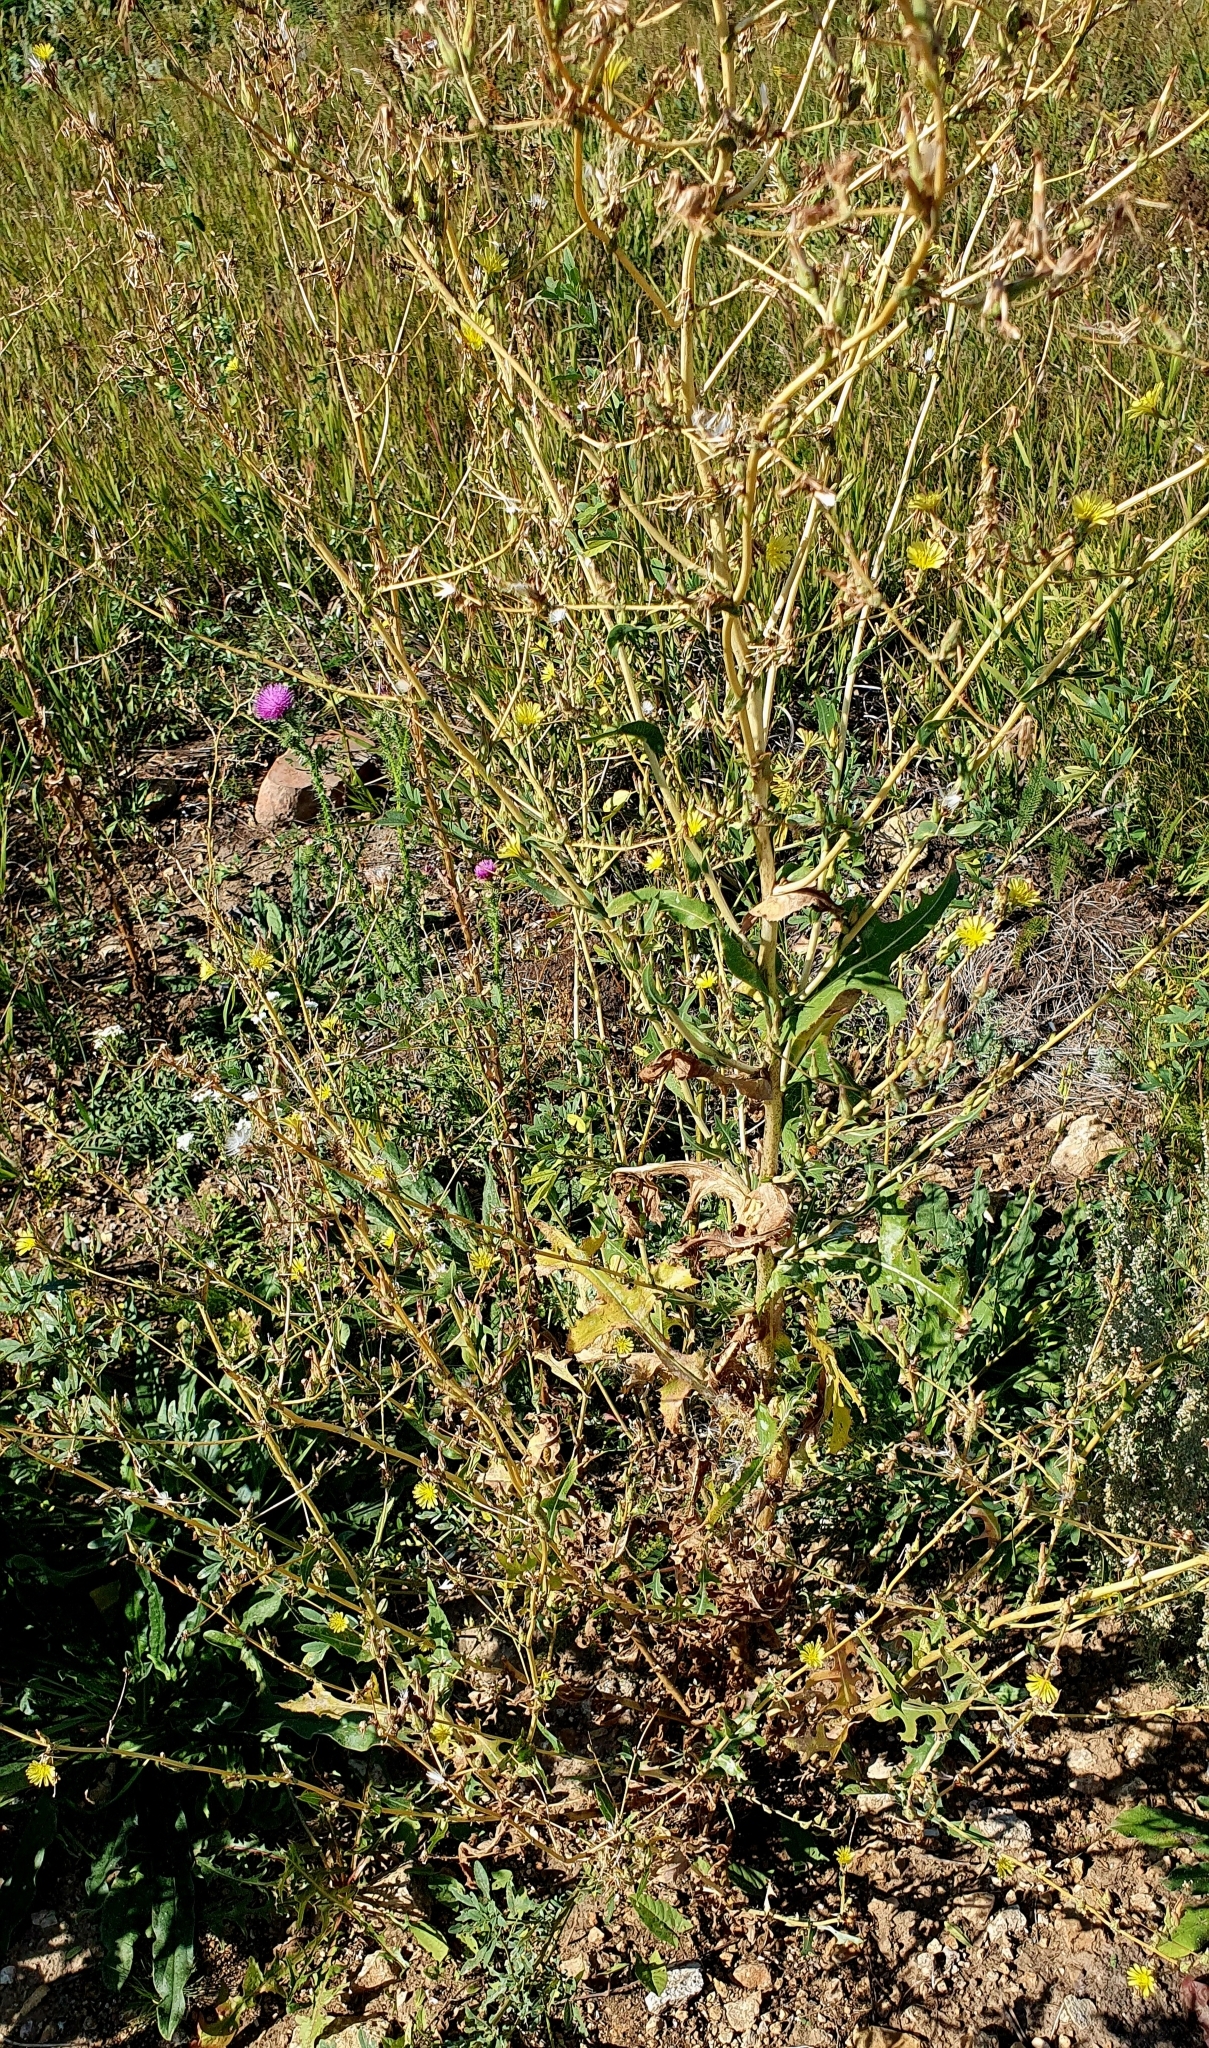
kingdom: Plantae
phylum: Tracheophyta
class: Magnoliopsida
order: Asterales
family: Asteraceae
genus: Lactuca
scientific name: Lactuca serriola
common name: Prickly lettuce
